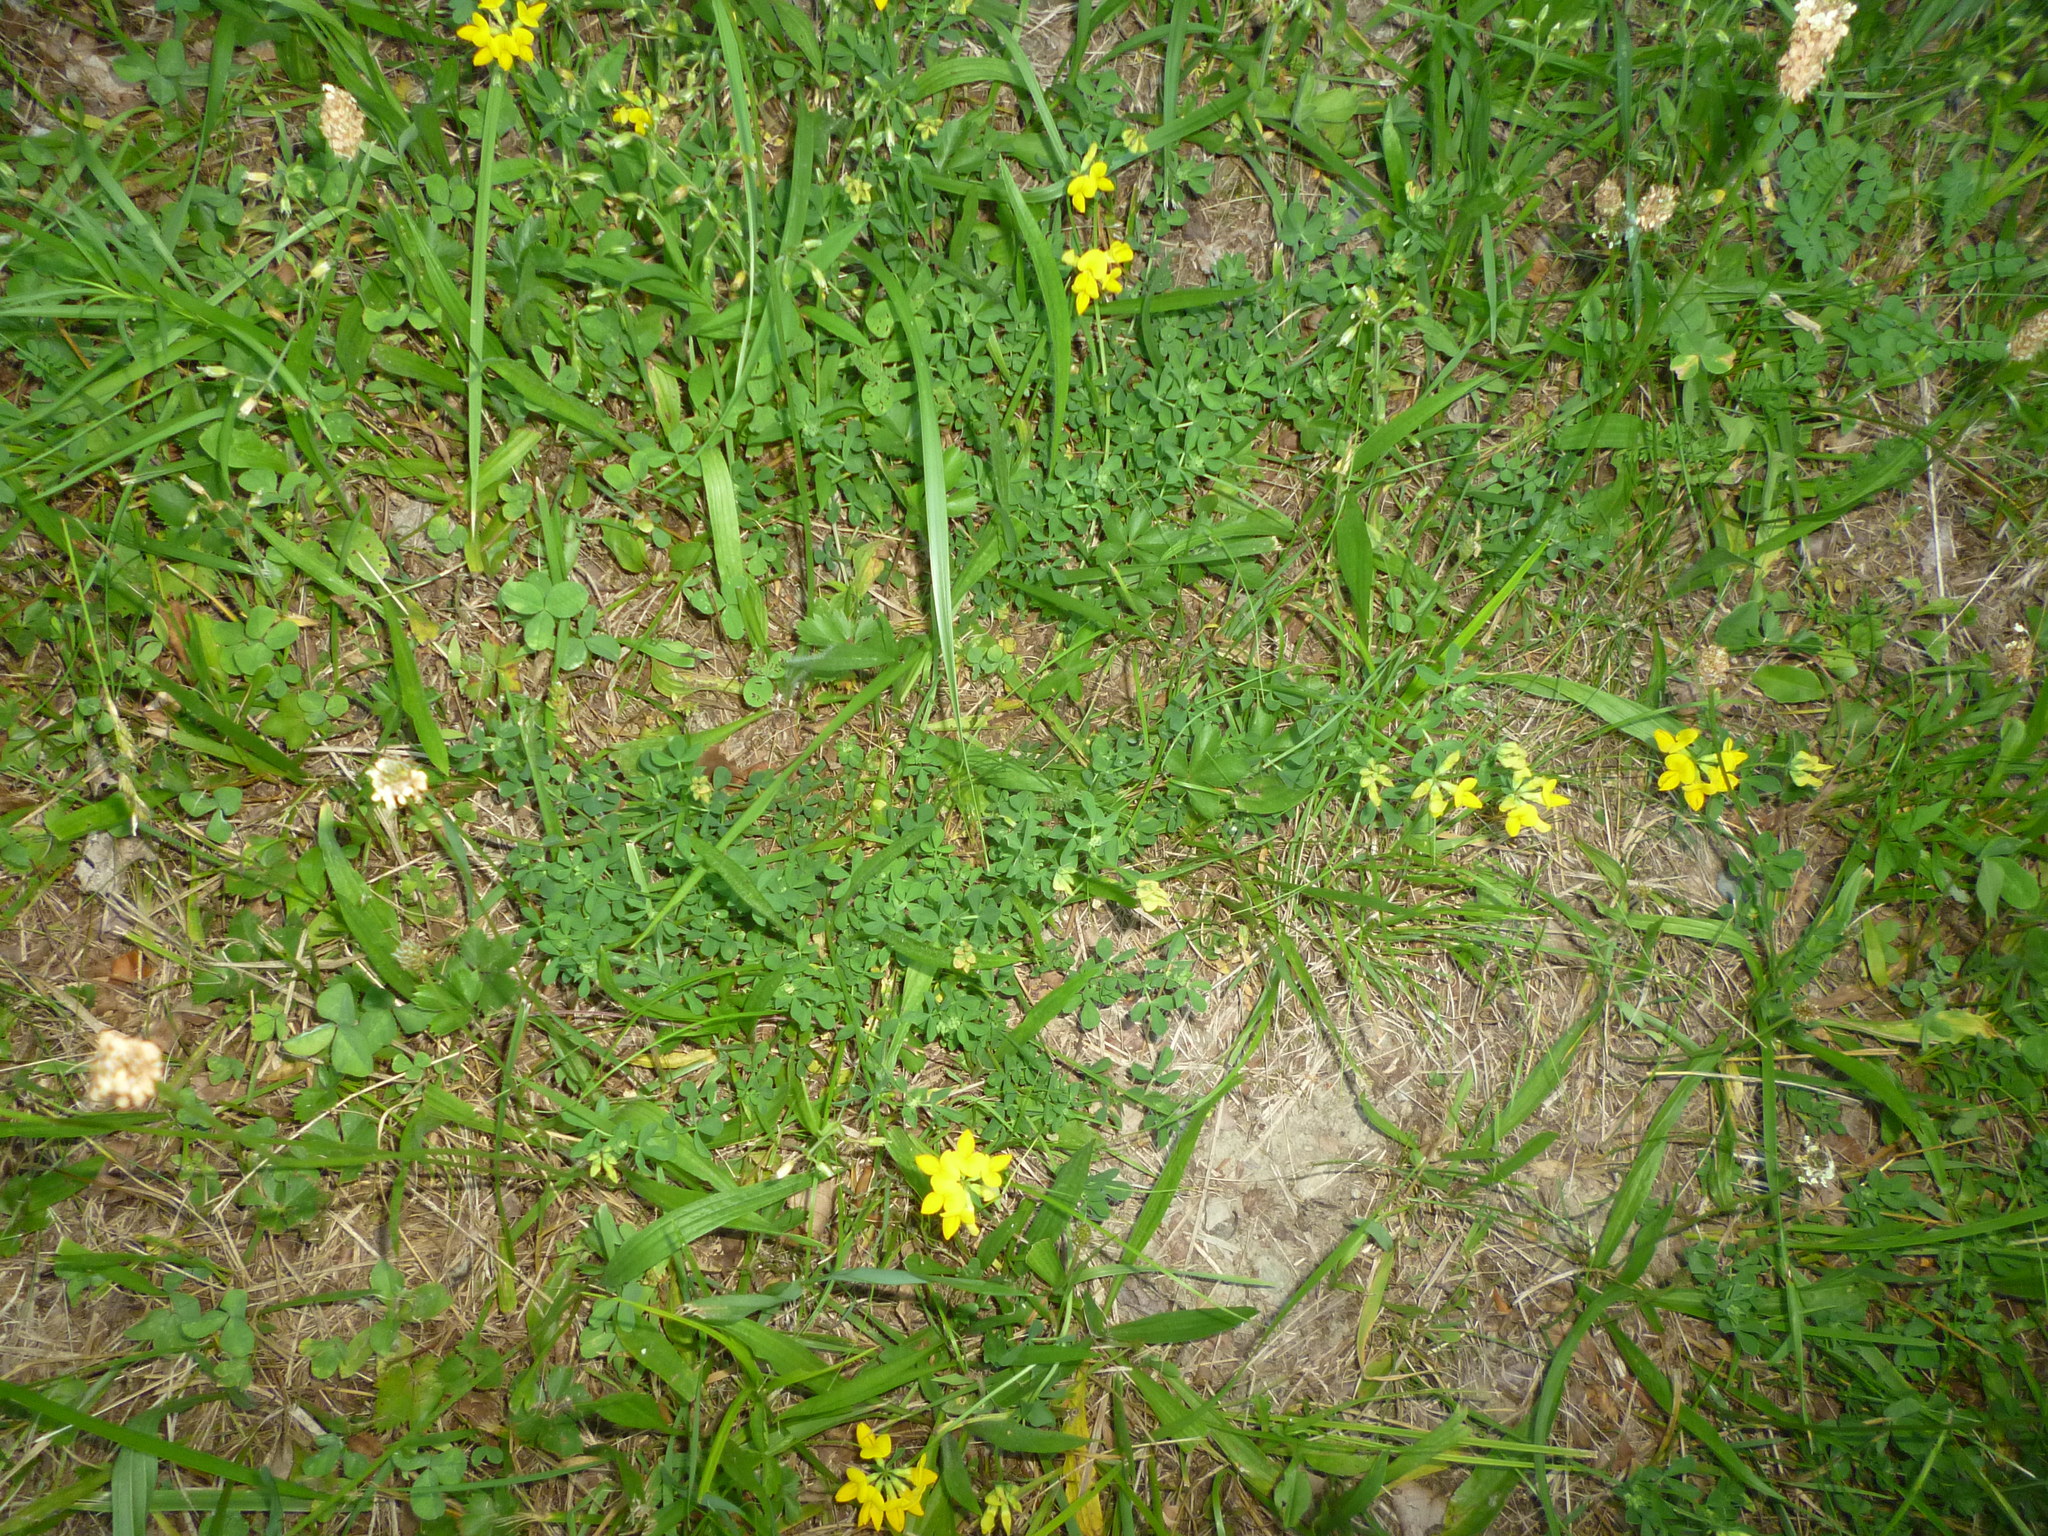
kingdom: Plantae
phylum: Tracheophyta
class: Magnoliopsida
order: Fabales
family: Fabaceae
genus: Lotus
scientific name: Lotus corniculatus
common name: Common bird's-foot-trefoil
